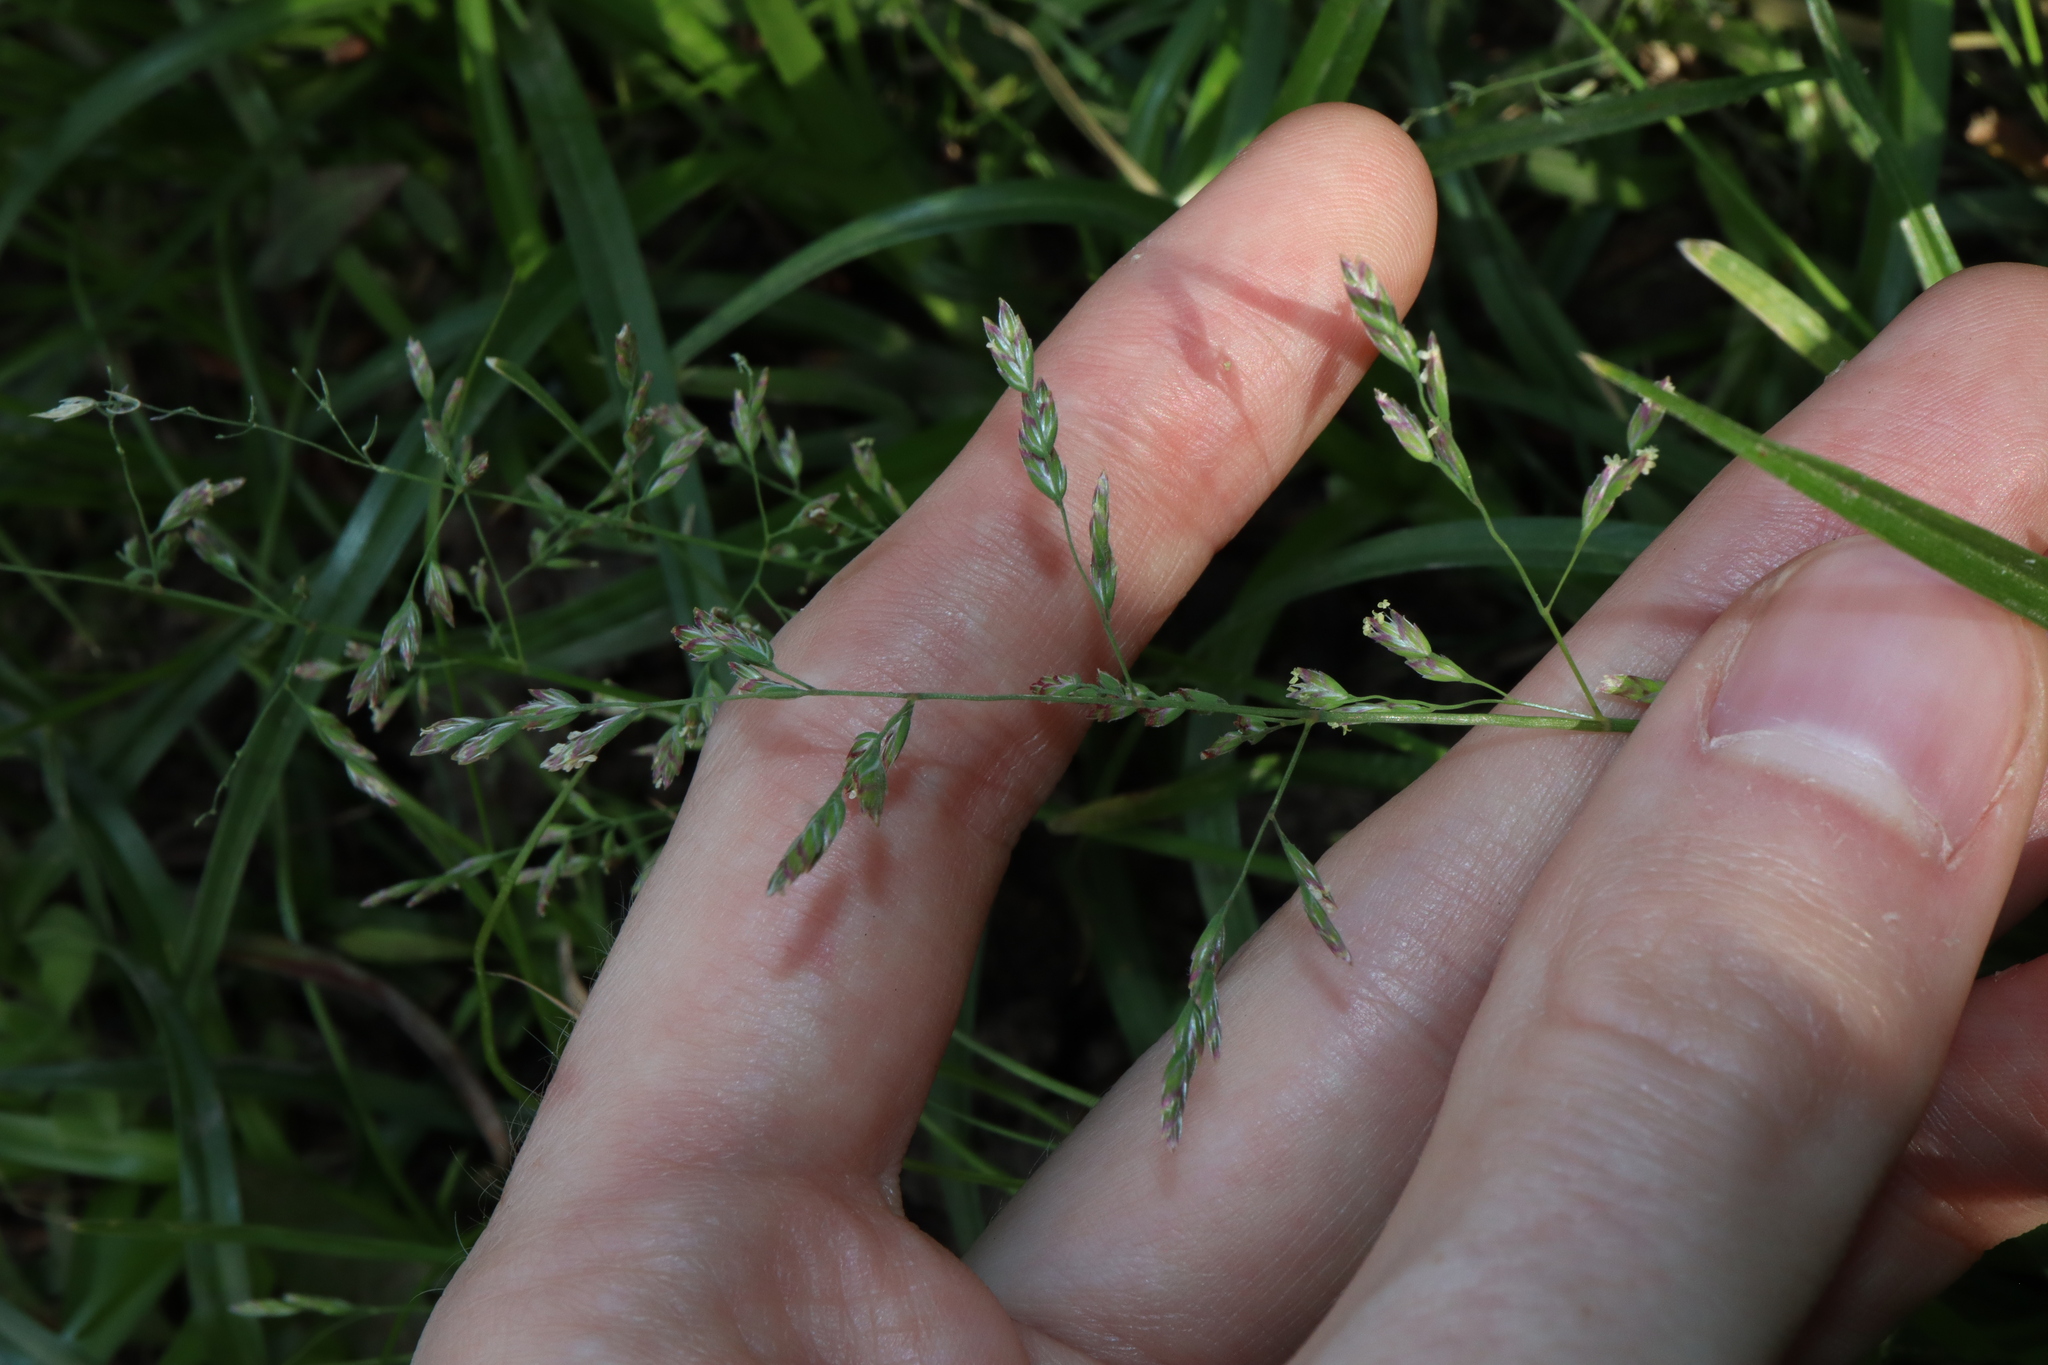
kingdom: Plantae
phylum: Tracheophyta
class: Liliopsida
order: Poales
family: Poaceae
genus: Poa
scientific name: Poa annua
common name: Annual bluegrass
